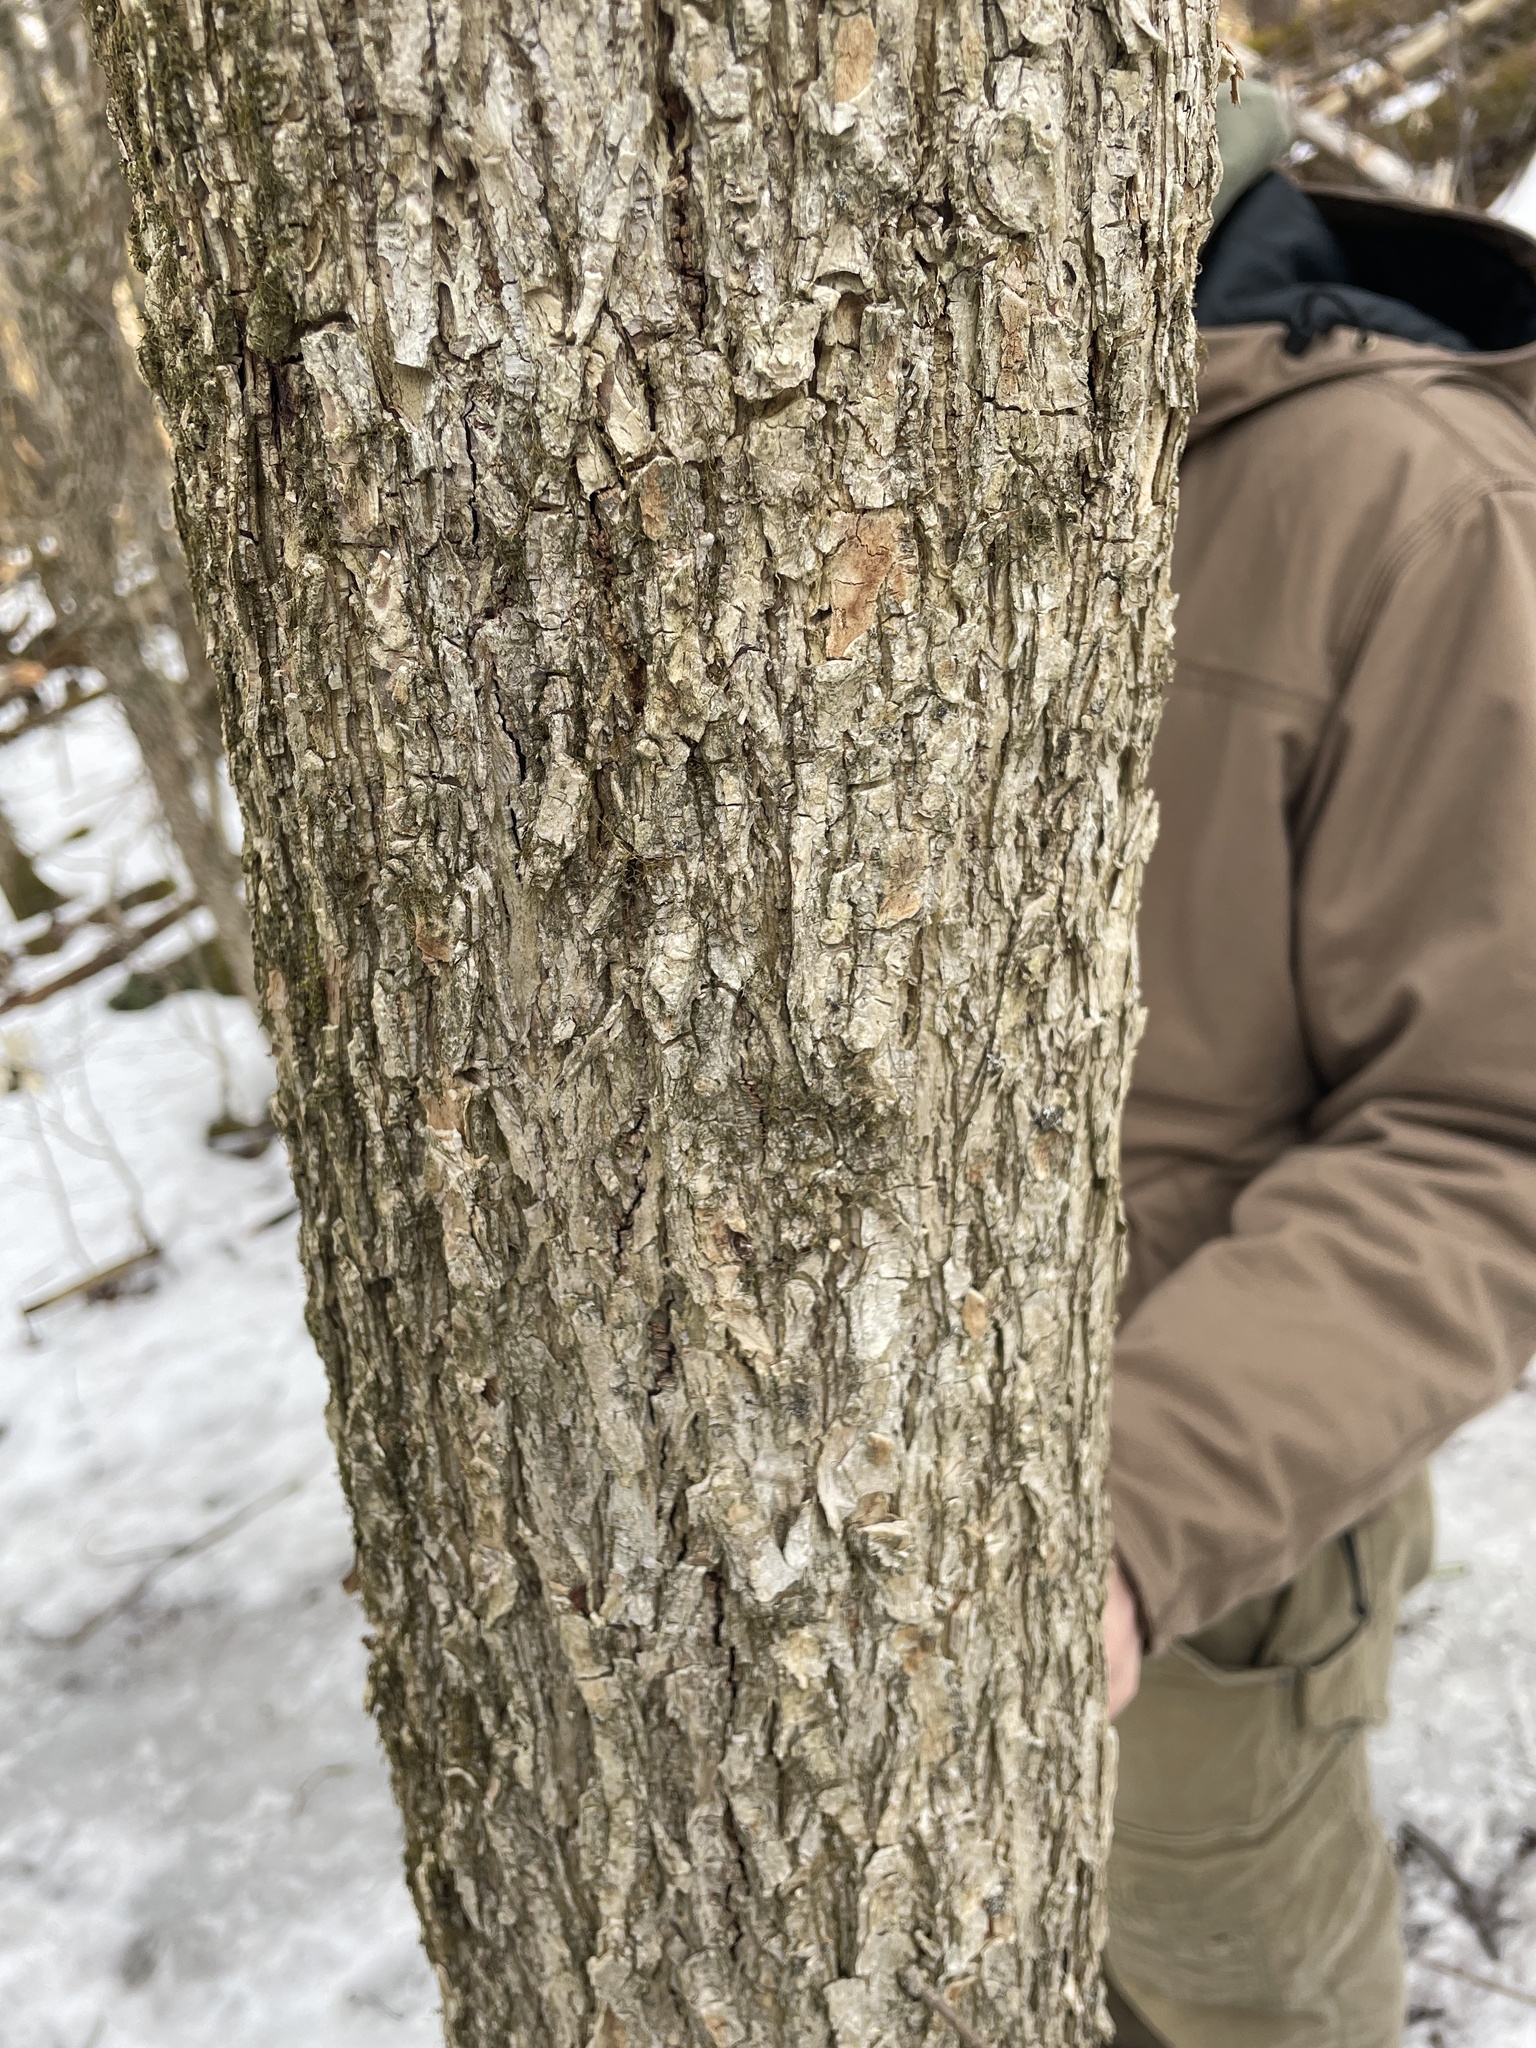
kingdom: Plantae
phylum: Tracheophyta
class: Magnoliopsida
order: Rosales
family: Ulmaceae
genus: Ulmus
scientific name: Ulmus americana
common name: American elm
